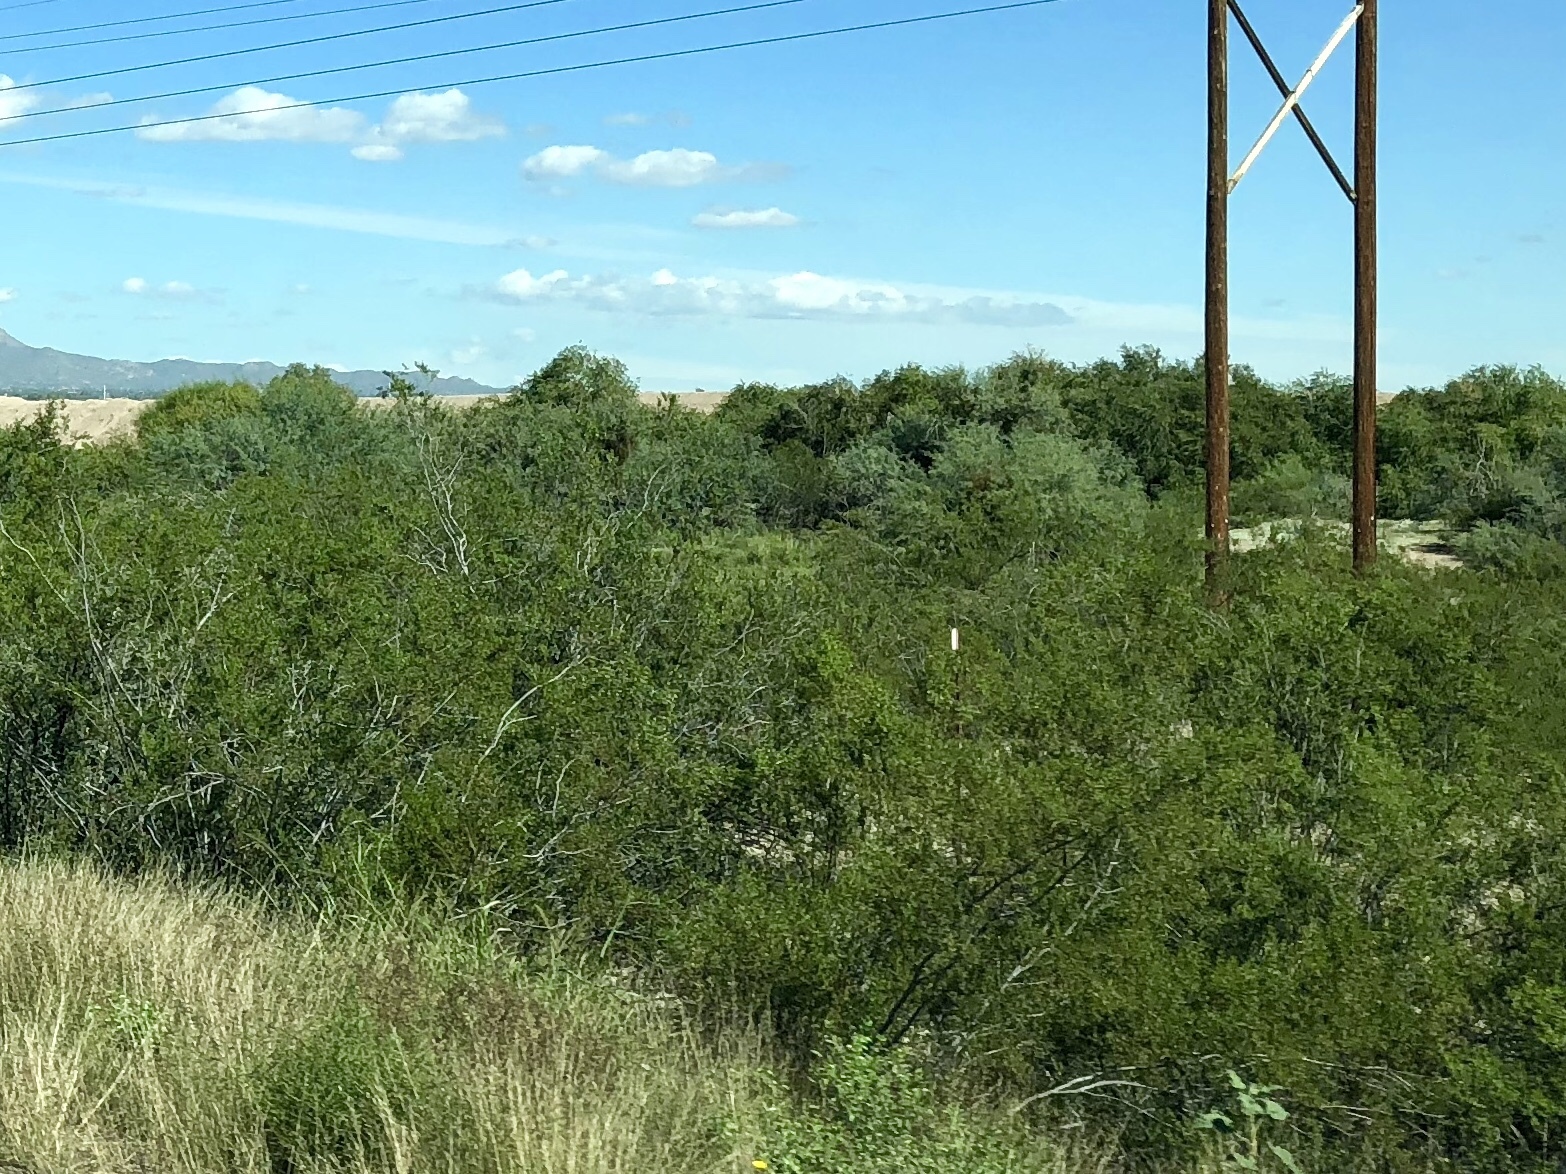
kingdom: Plantae
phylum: Tracheophyta
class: Magnoliopsida
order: Zygophyllales
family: Zygophyllaceae
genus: Larrea
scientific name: Larrea tridentata
